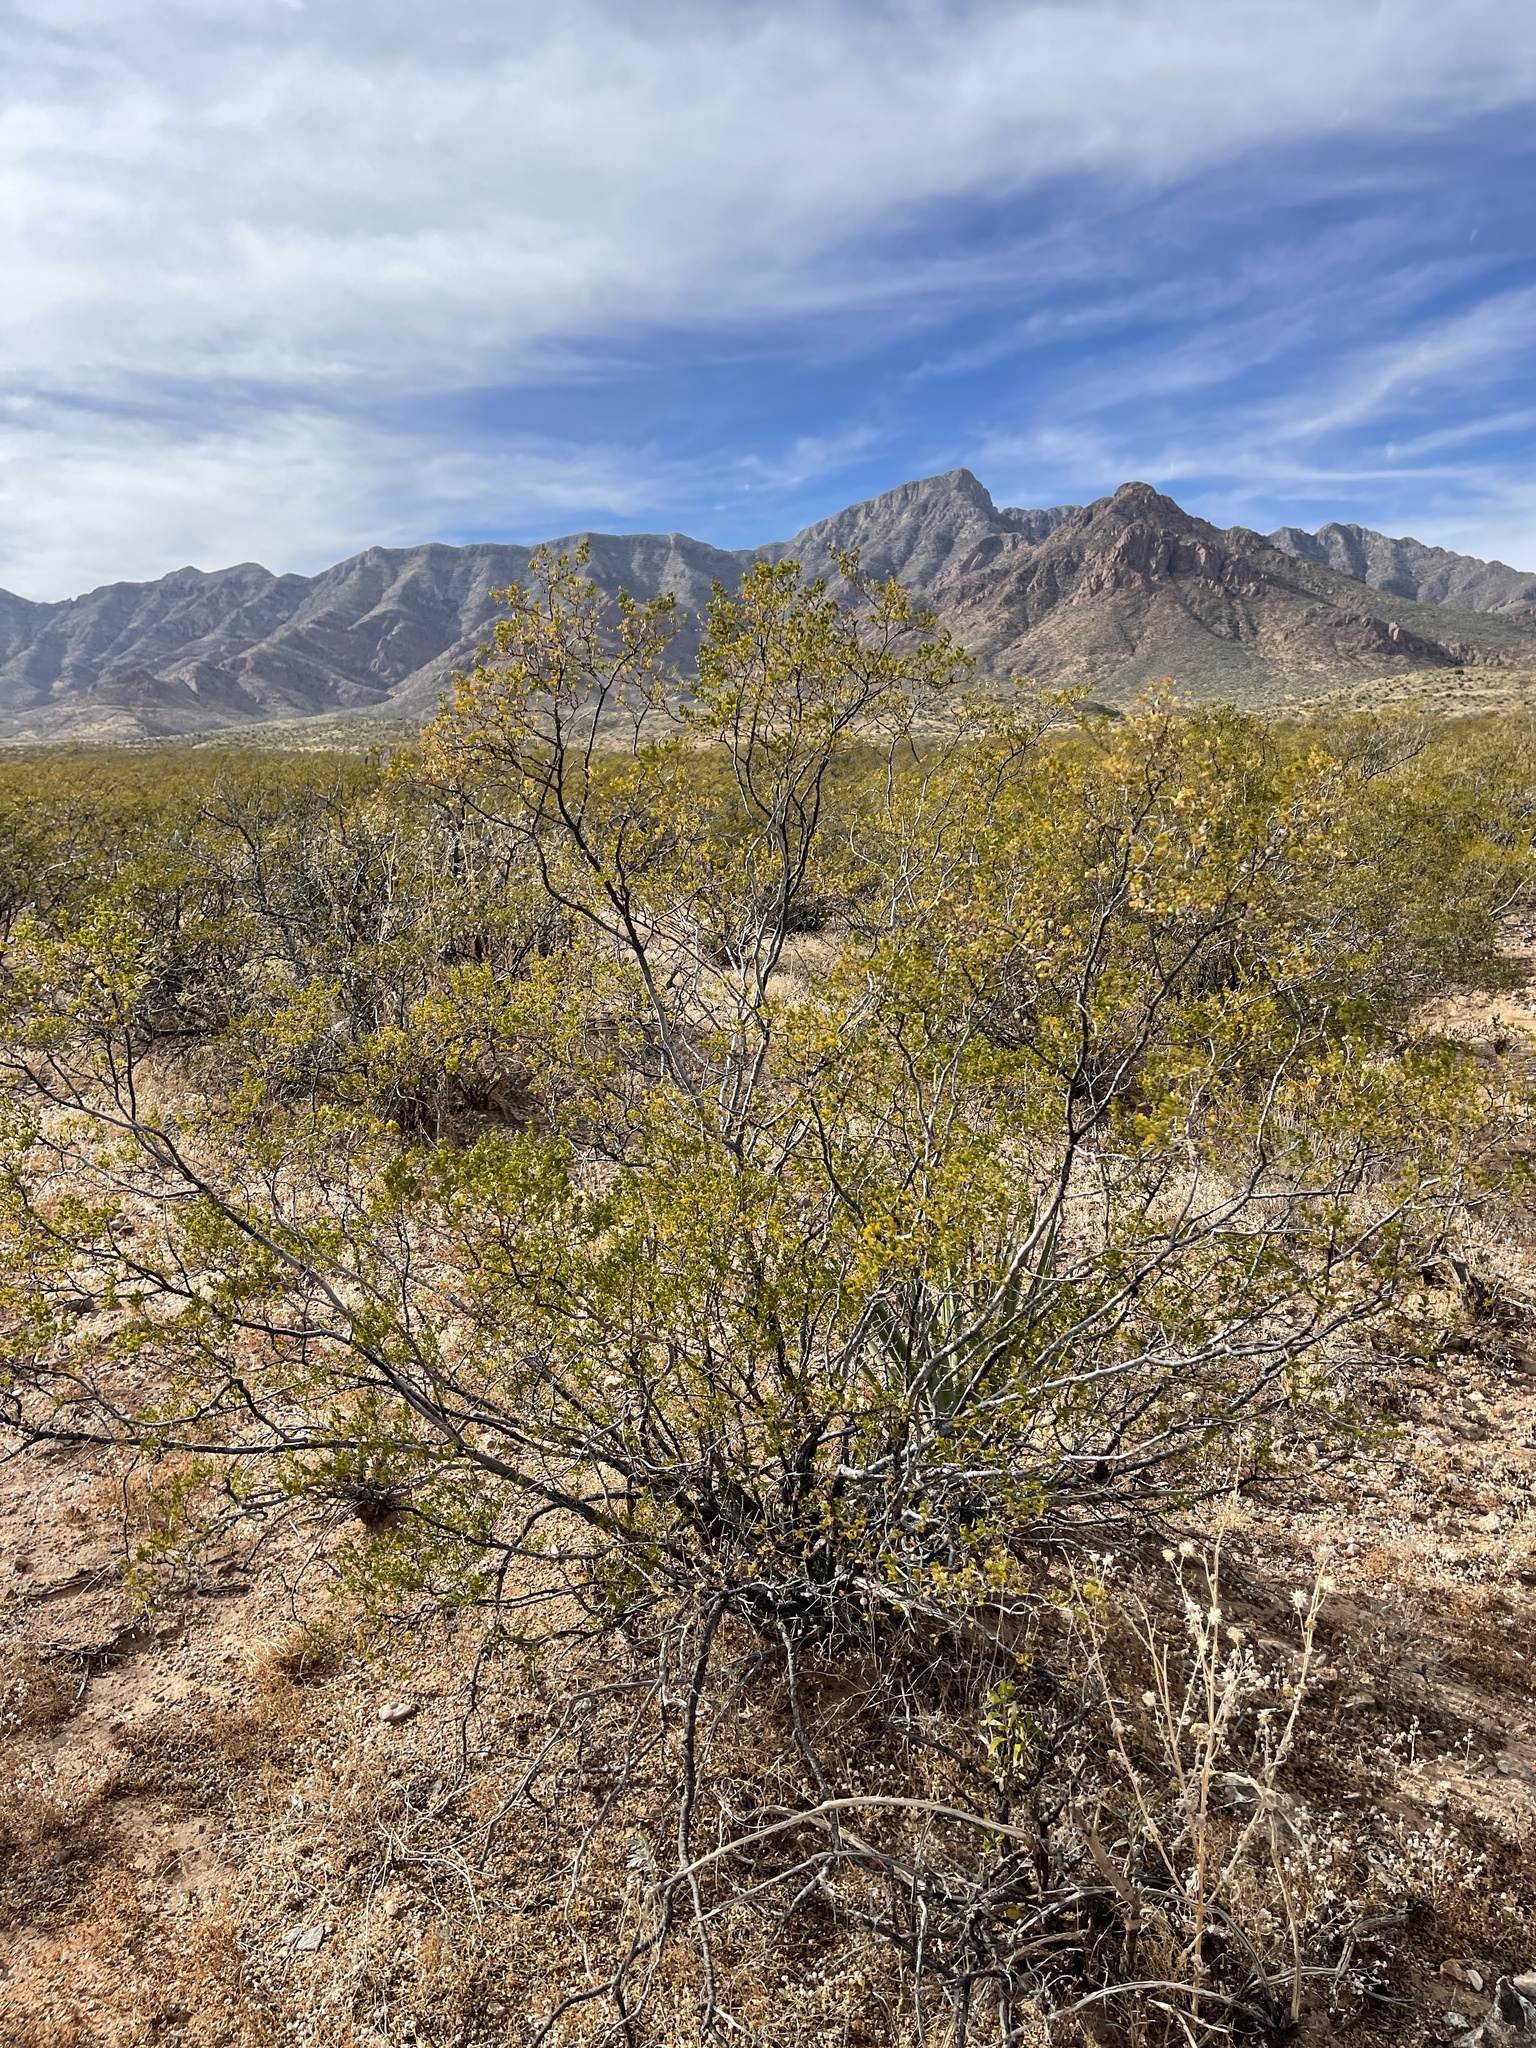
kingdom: Plantae
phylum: Tracheophyta
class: Magnoliopsida
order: Zygophyllales
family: Zygophyllaceae
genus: Larrea
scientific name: Larrea tridentata
